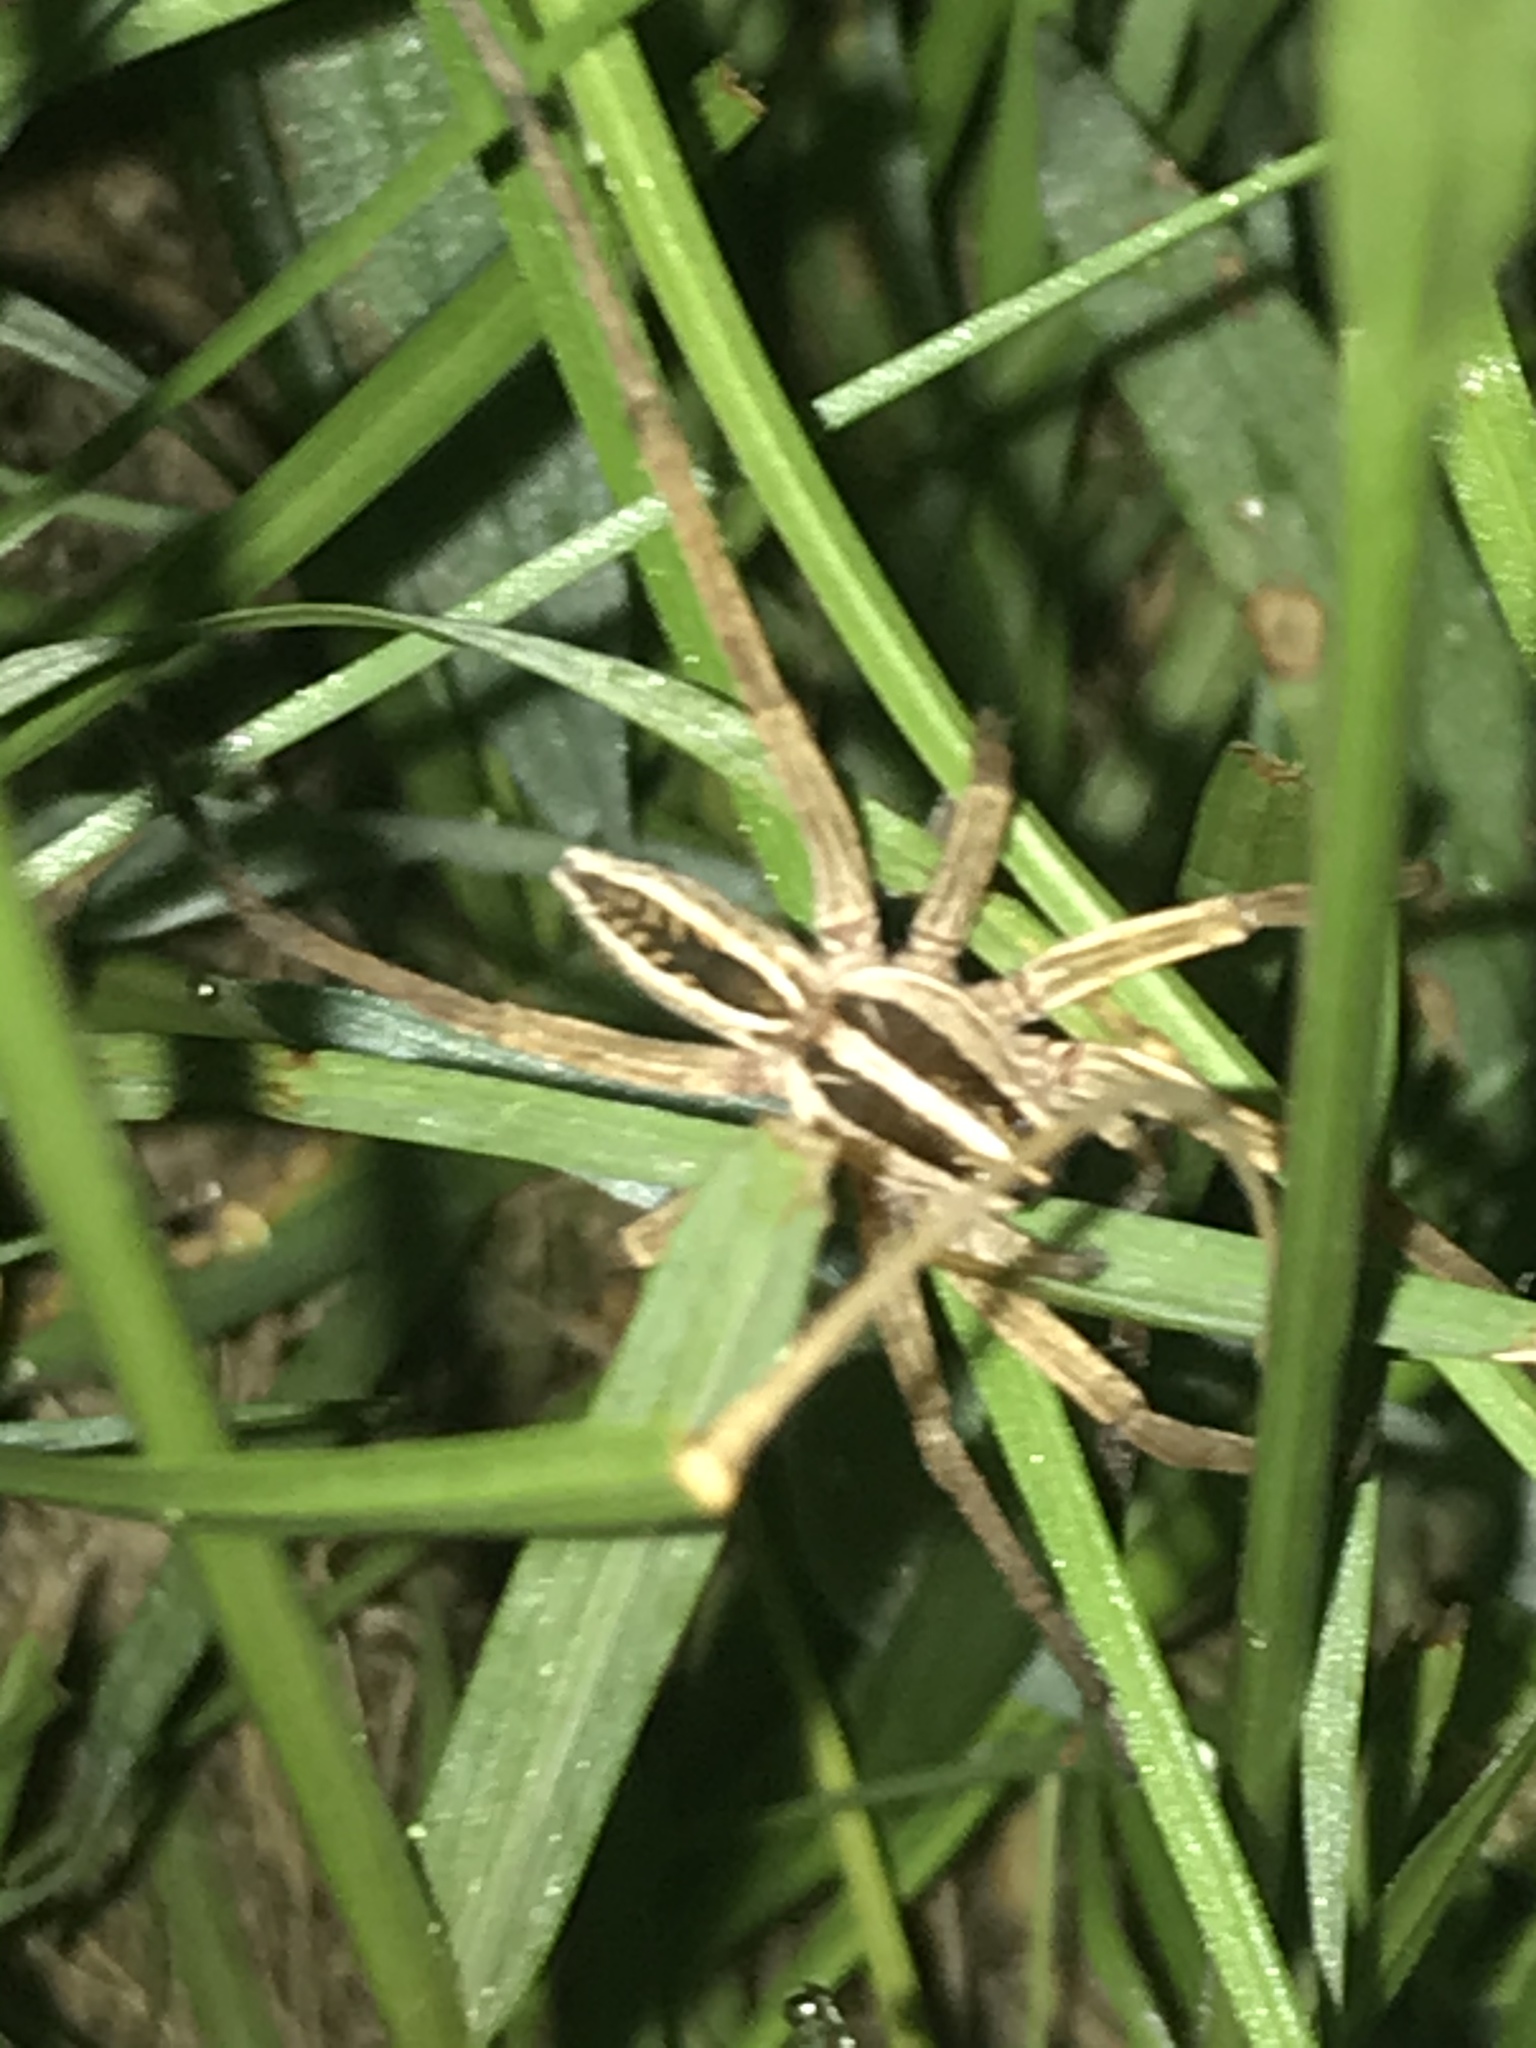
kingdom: Animalia
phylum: Arthropoda
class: Arachnida
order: Araneae
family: Lycosidae
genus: Rabidosa
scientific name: Rabidosa rabida
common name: Rabid wolf spider
